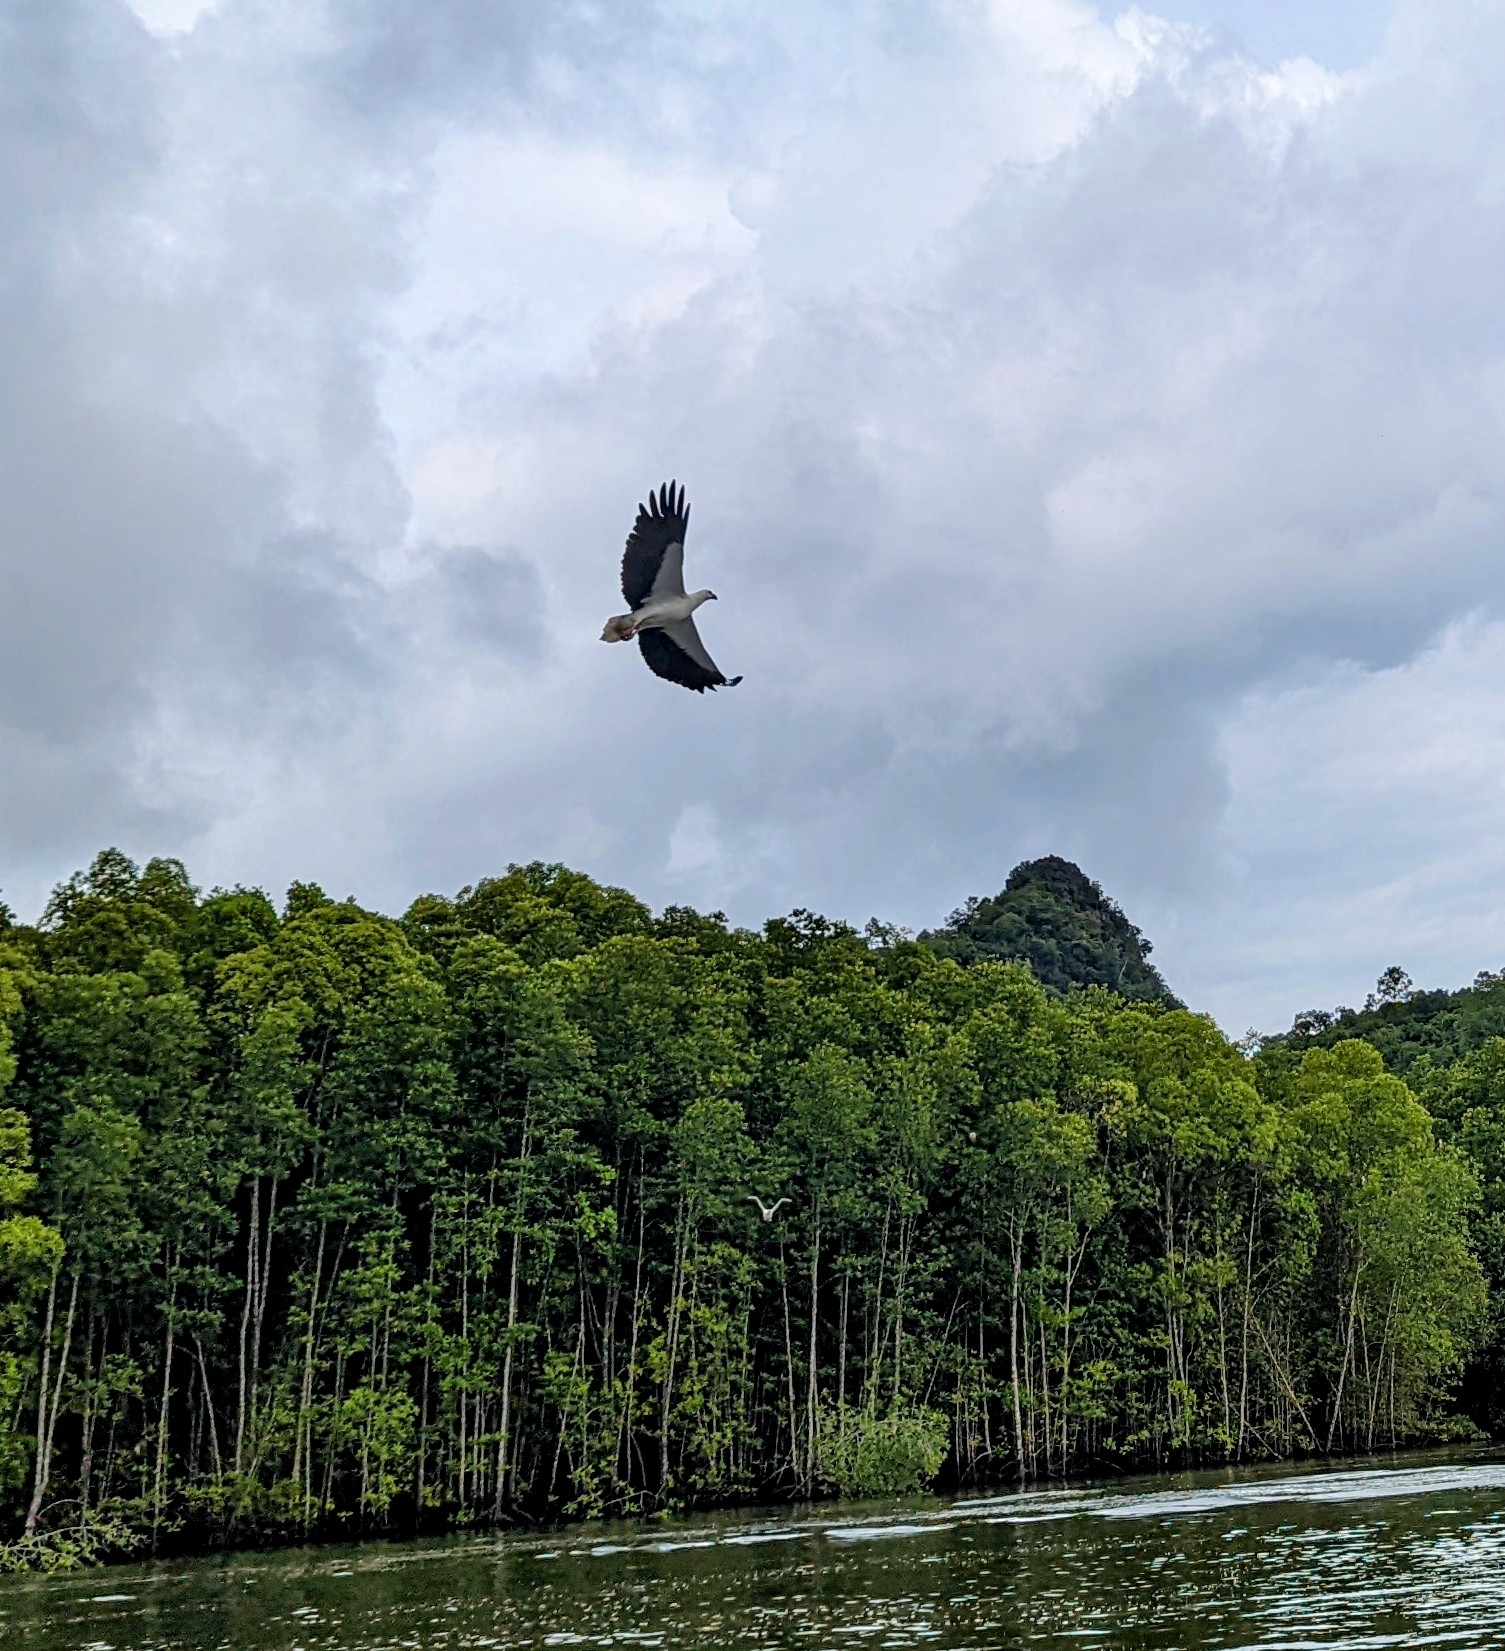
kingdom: Animalia
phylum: Chordata
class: Aves
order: Accipitriformes
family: Accipitridae
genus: Haliaeetus
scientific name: Haliaeetus leucogaster
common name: White-bellied sea eagle
